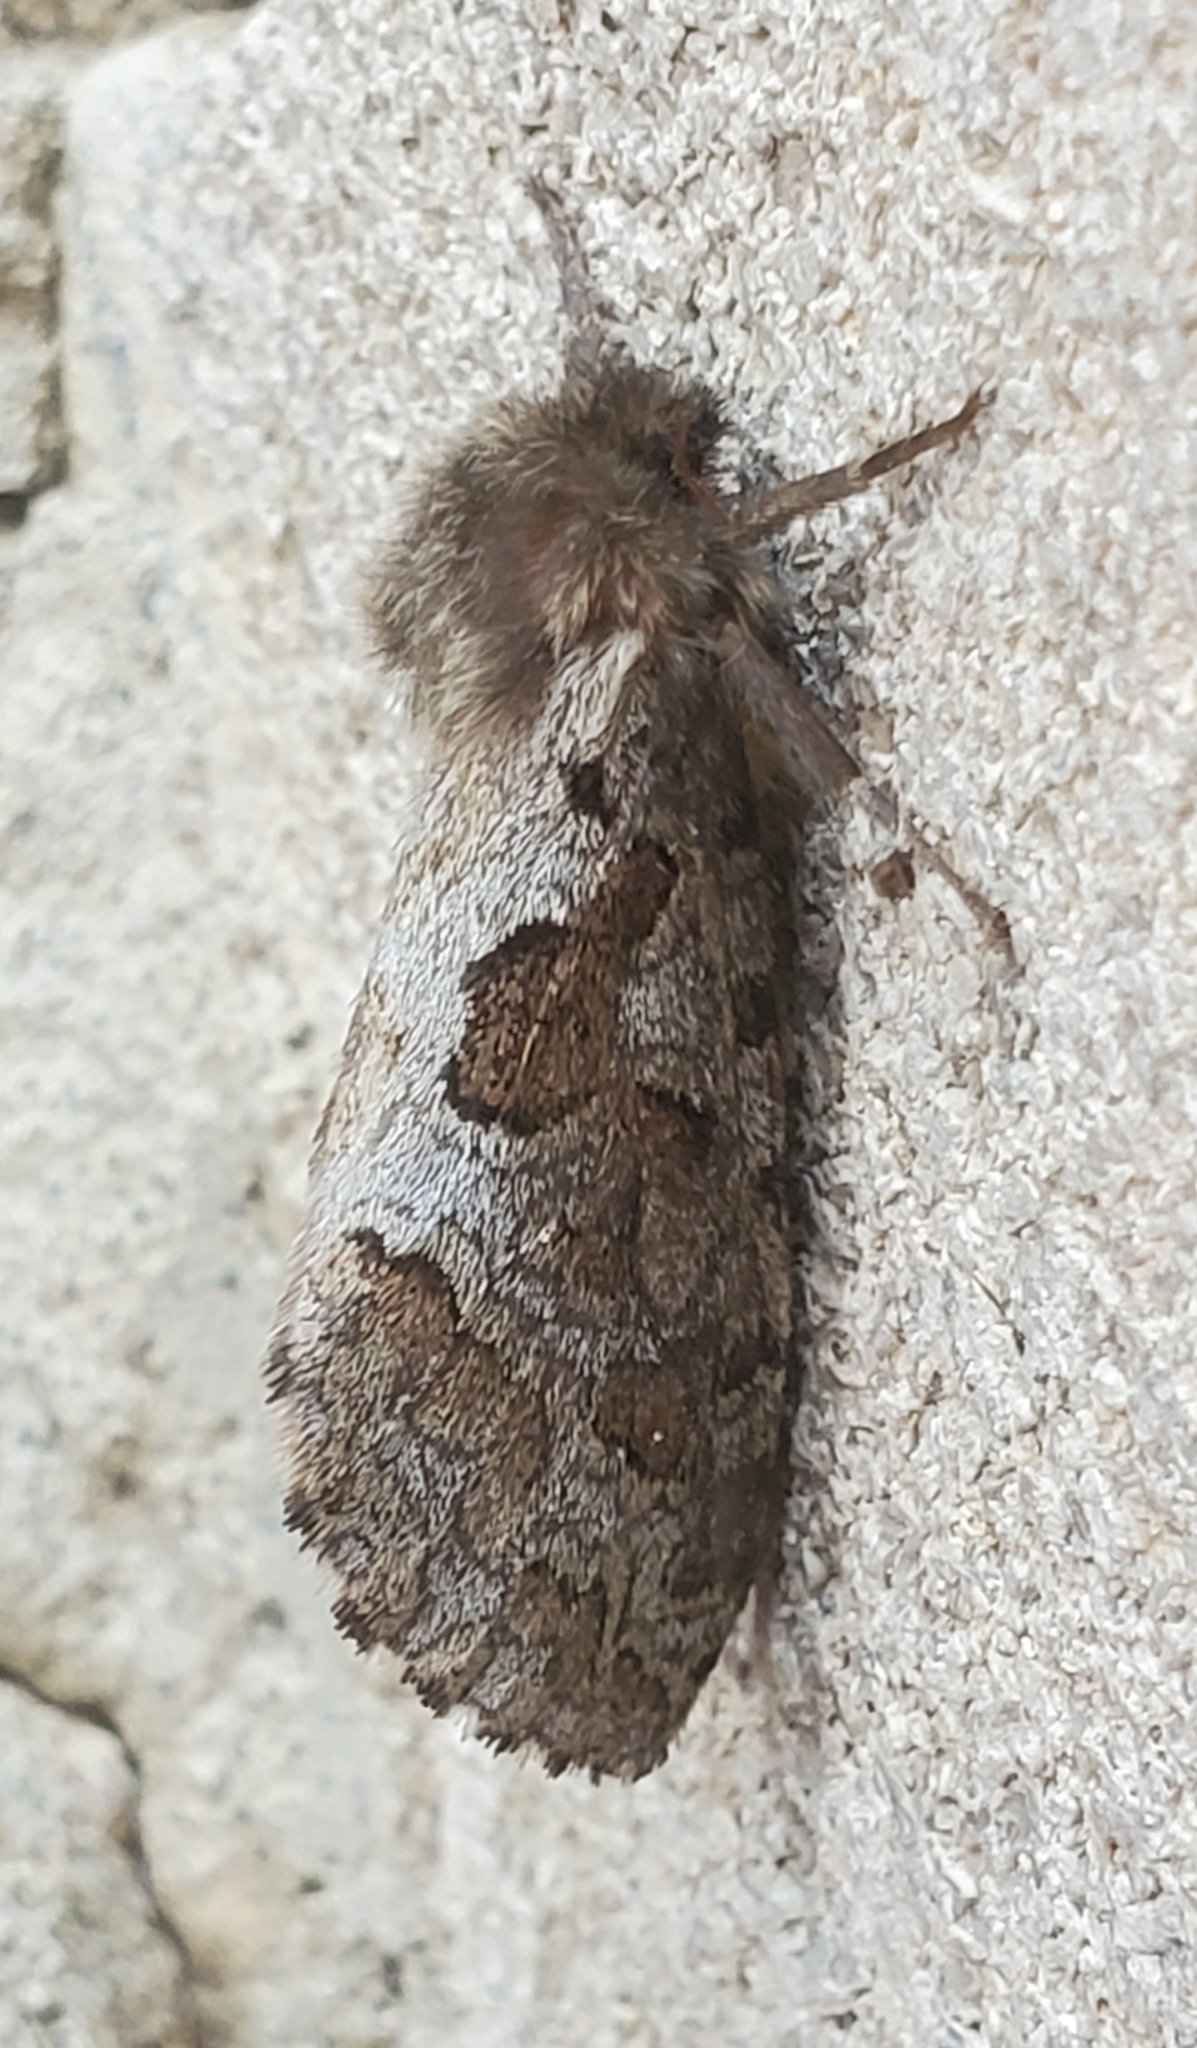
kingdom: Animalia
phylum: Arthropoda
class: Insecta
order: Lepidoptera
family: Hepialidae
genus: Korscheltellus
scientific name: Korscheltellus gracilis
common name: Conifer swift moth
